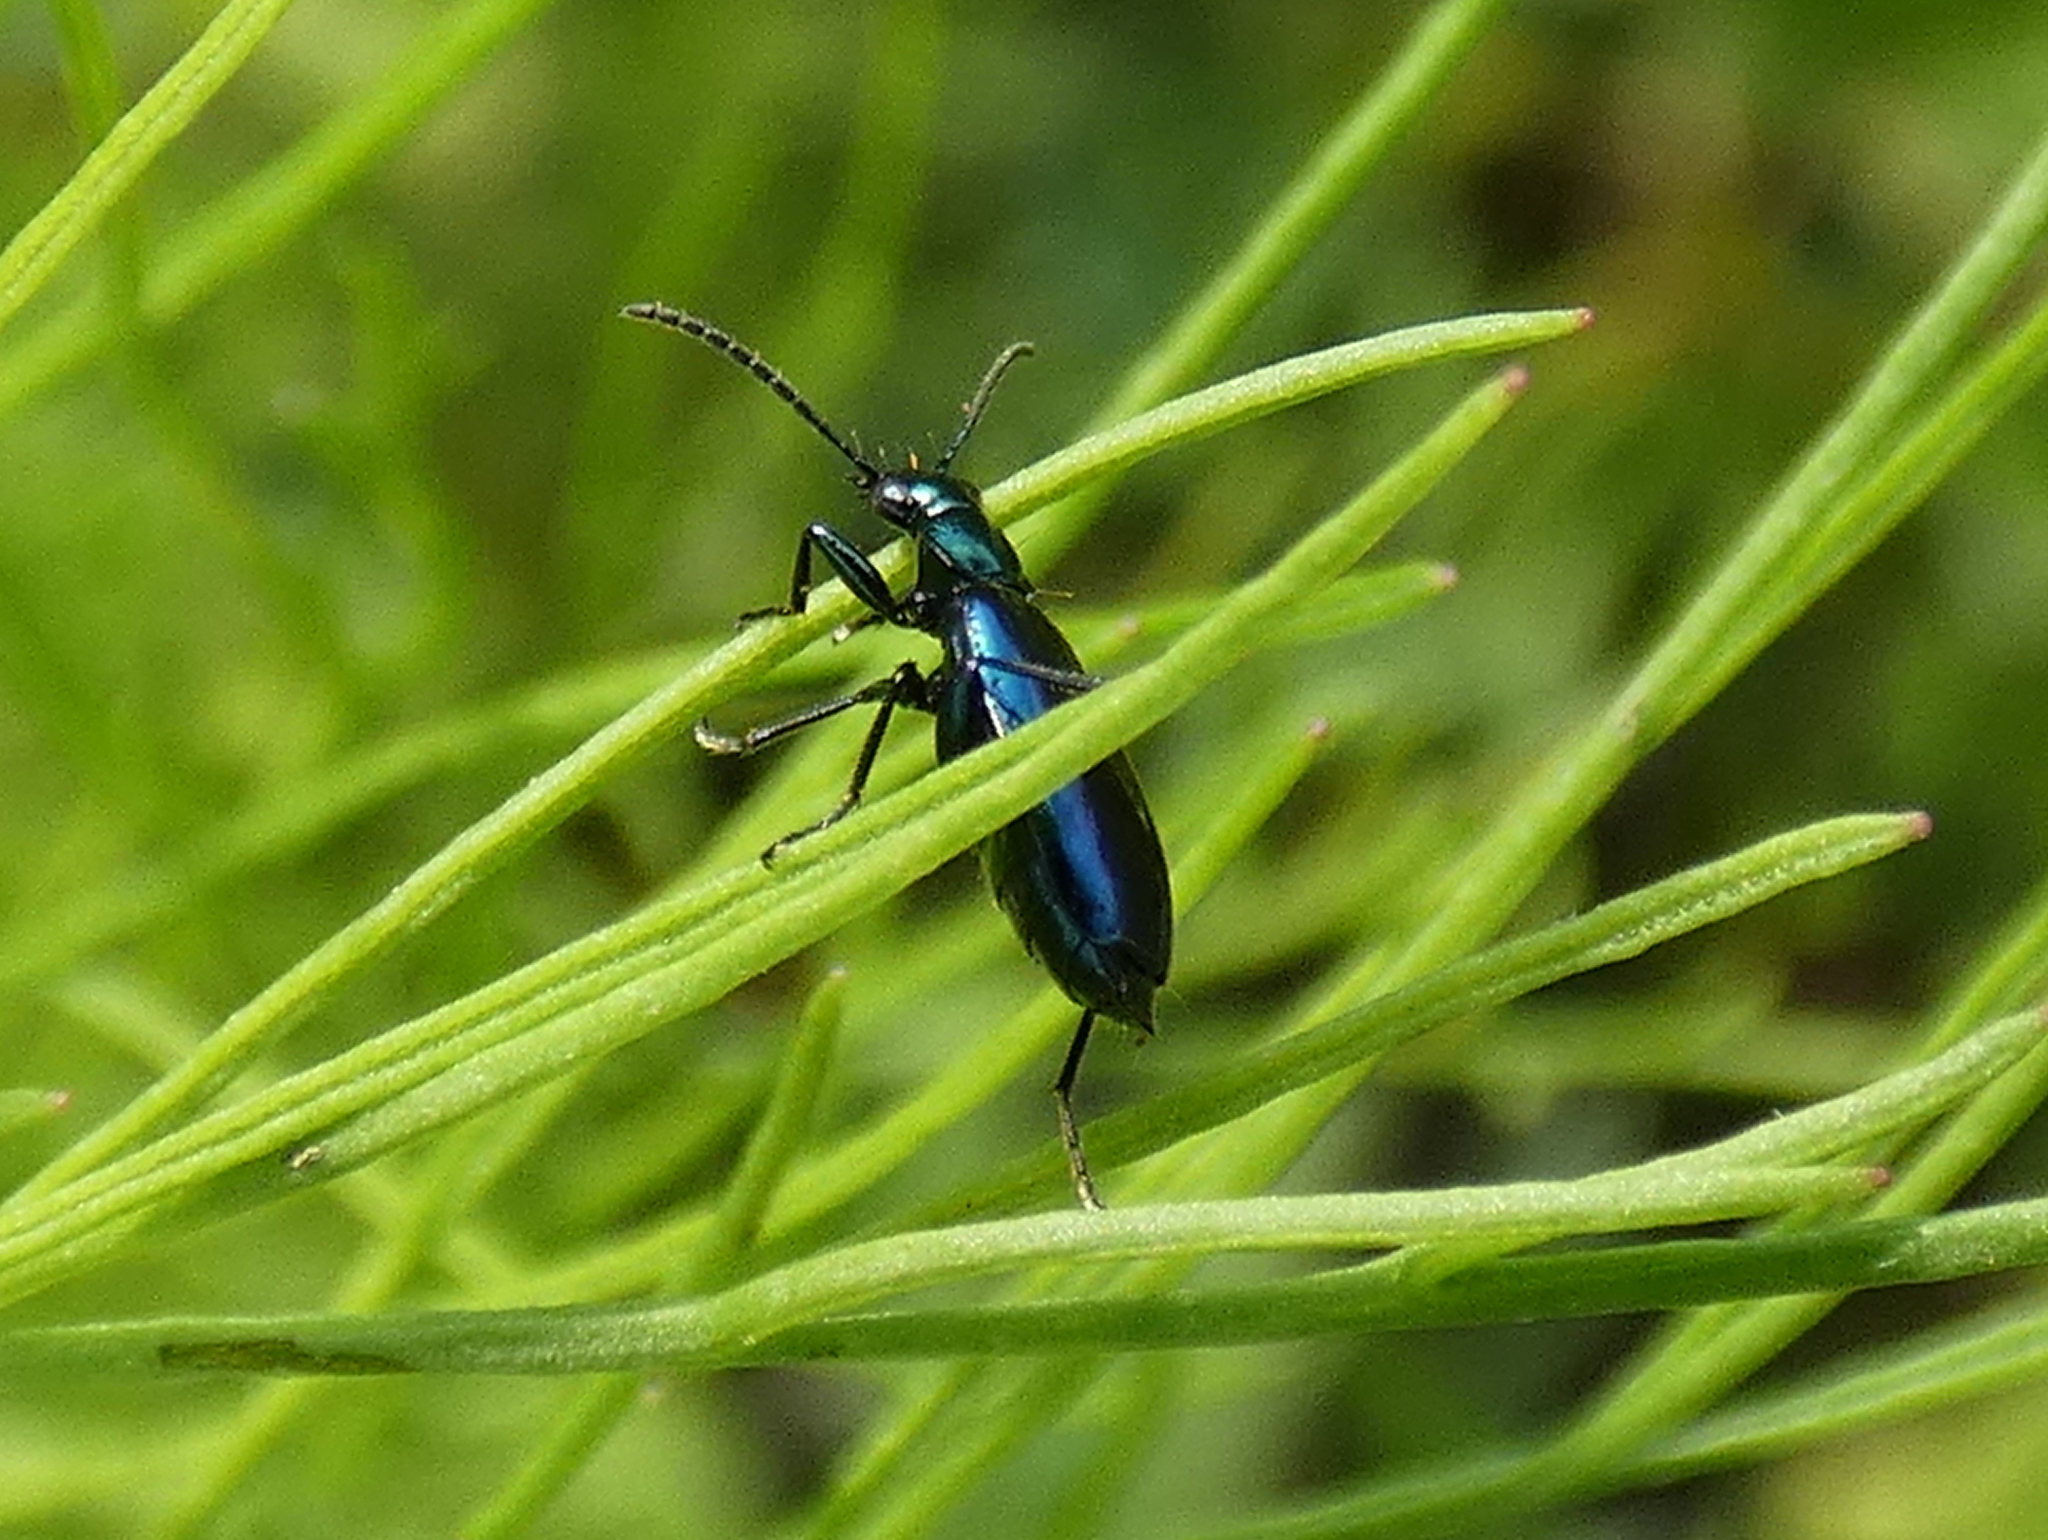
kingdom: Animalia
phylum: Arthropoda
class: Insecta
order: Coleoptera
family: Carabidae
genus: Lebia
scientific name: Lebia viridis
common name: Flower lebia beetle
